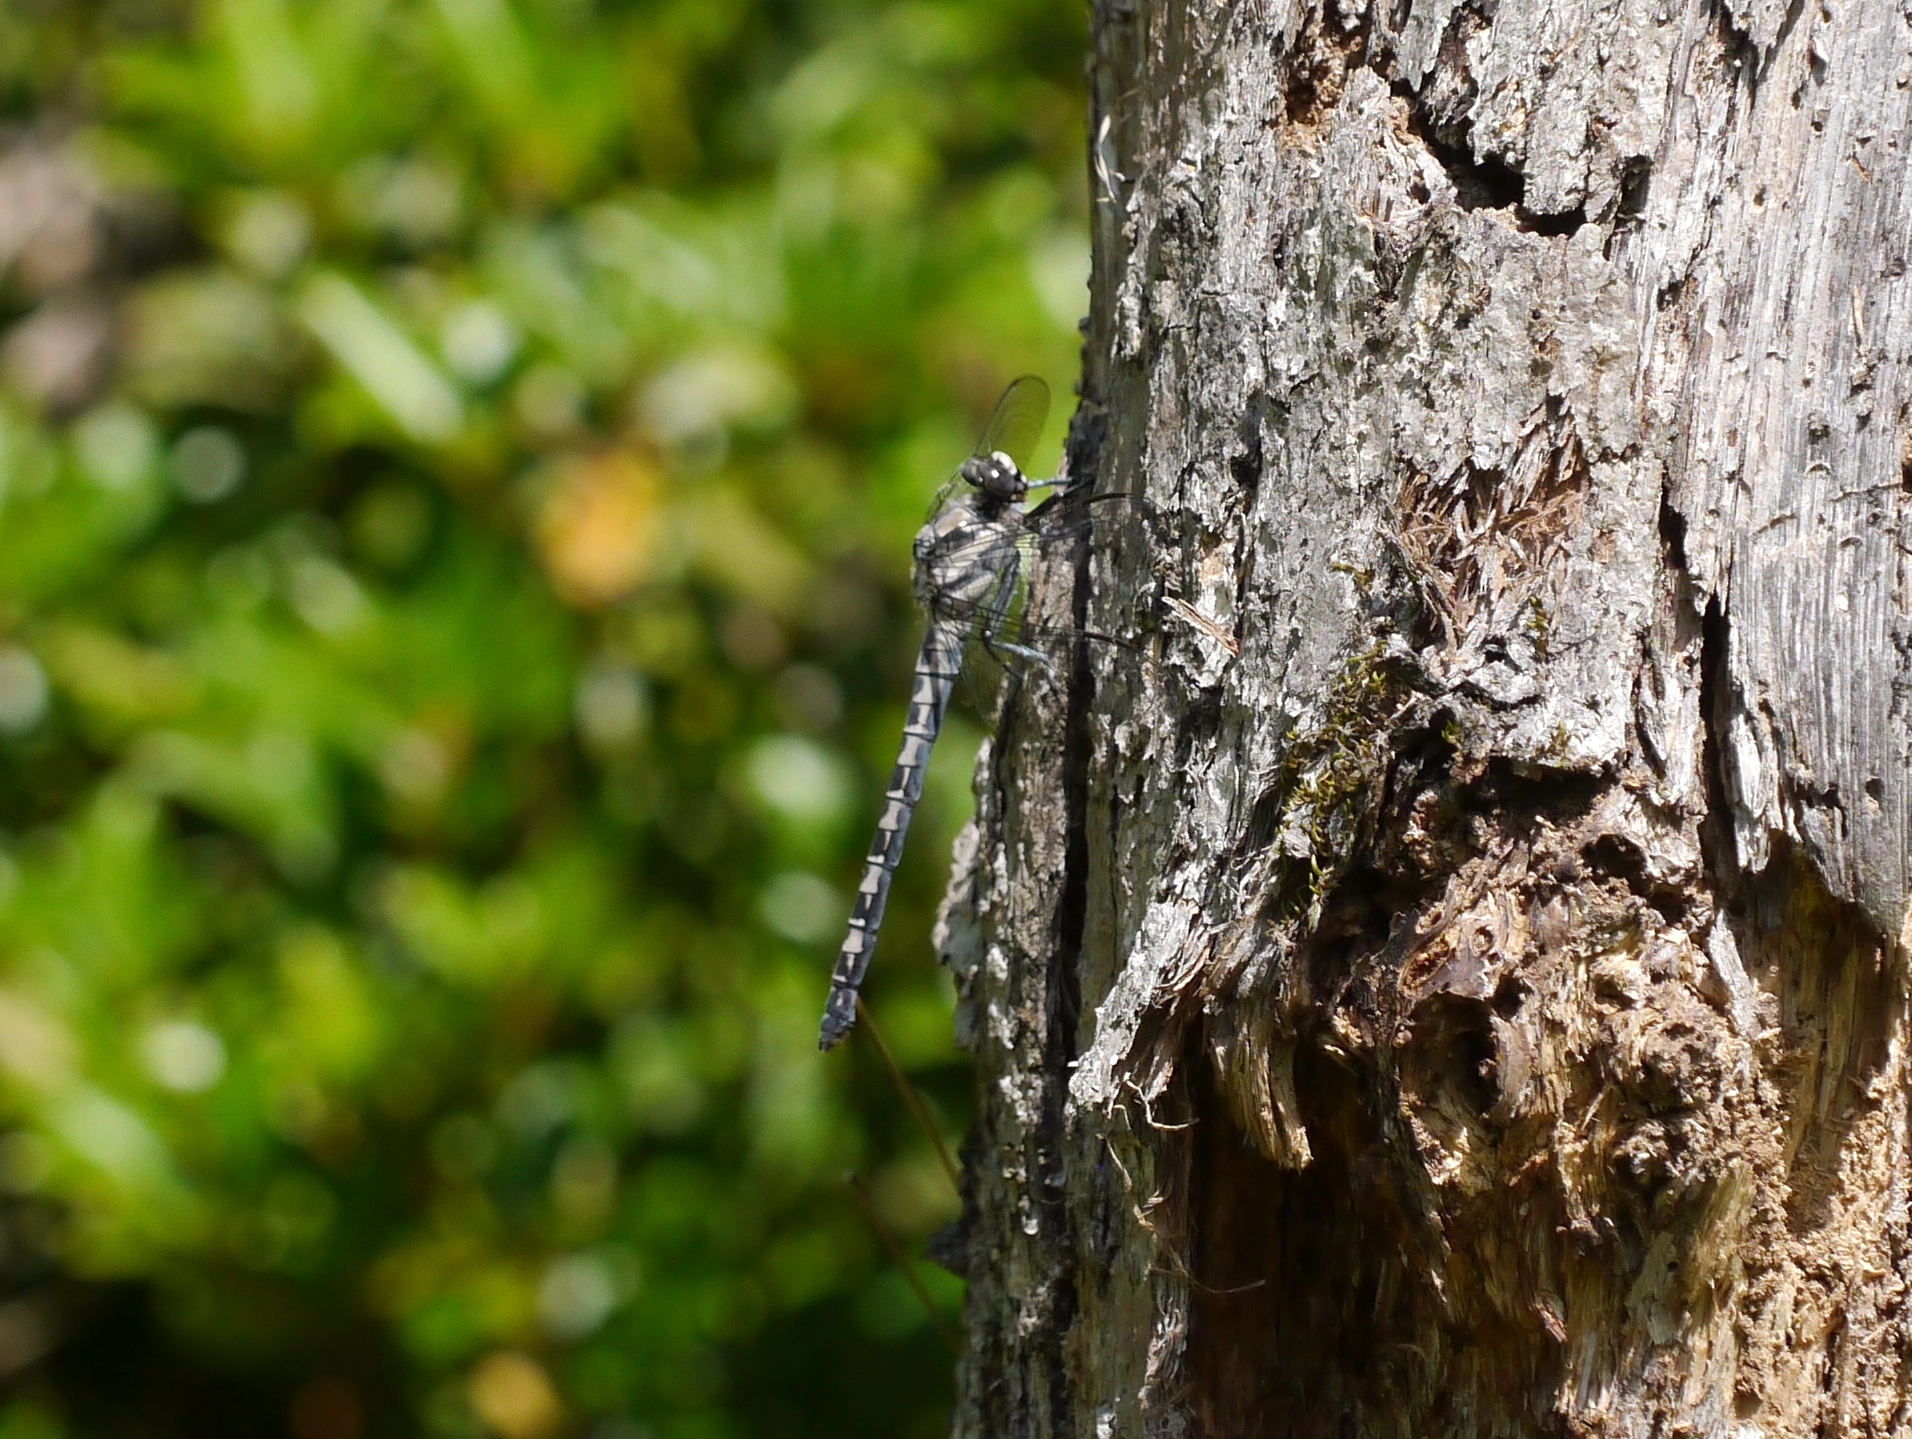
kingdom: Animalia
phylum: Arthropoda
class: Insecta
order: Odonata
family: Petaluridae
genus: Tachopteryx
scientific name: Tachopteryx thoreyi
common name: Gray petaltail
